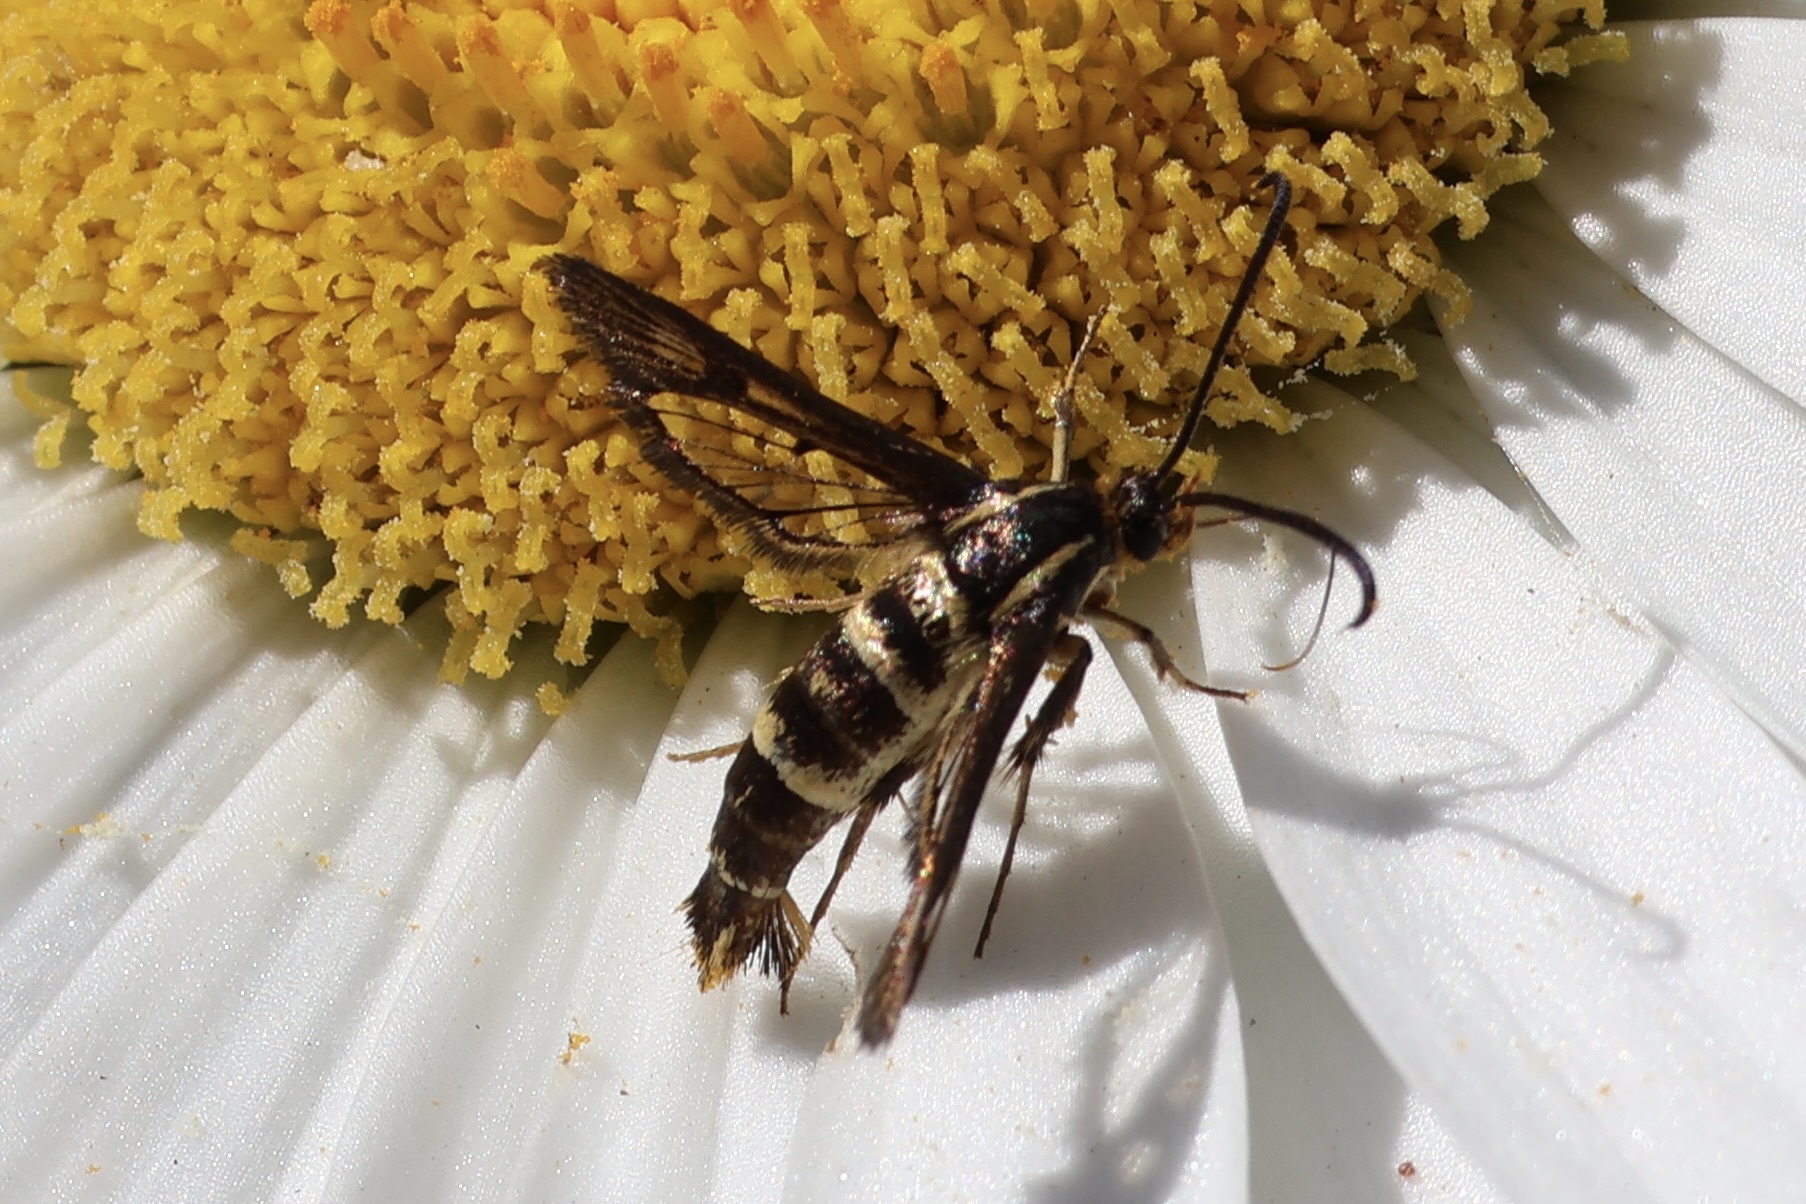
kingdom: Animalia
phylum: Arthropoda
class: Insecta
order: Lepidoptera
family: Sesiidae
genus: Synanthedon
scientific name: Synanthedon bibionipennis
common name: Strawberry crown moth
